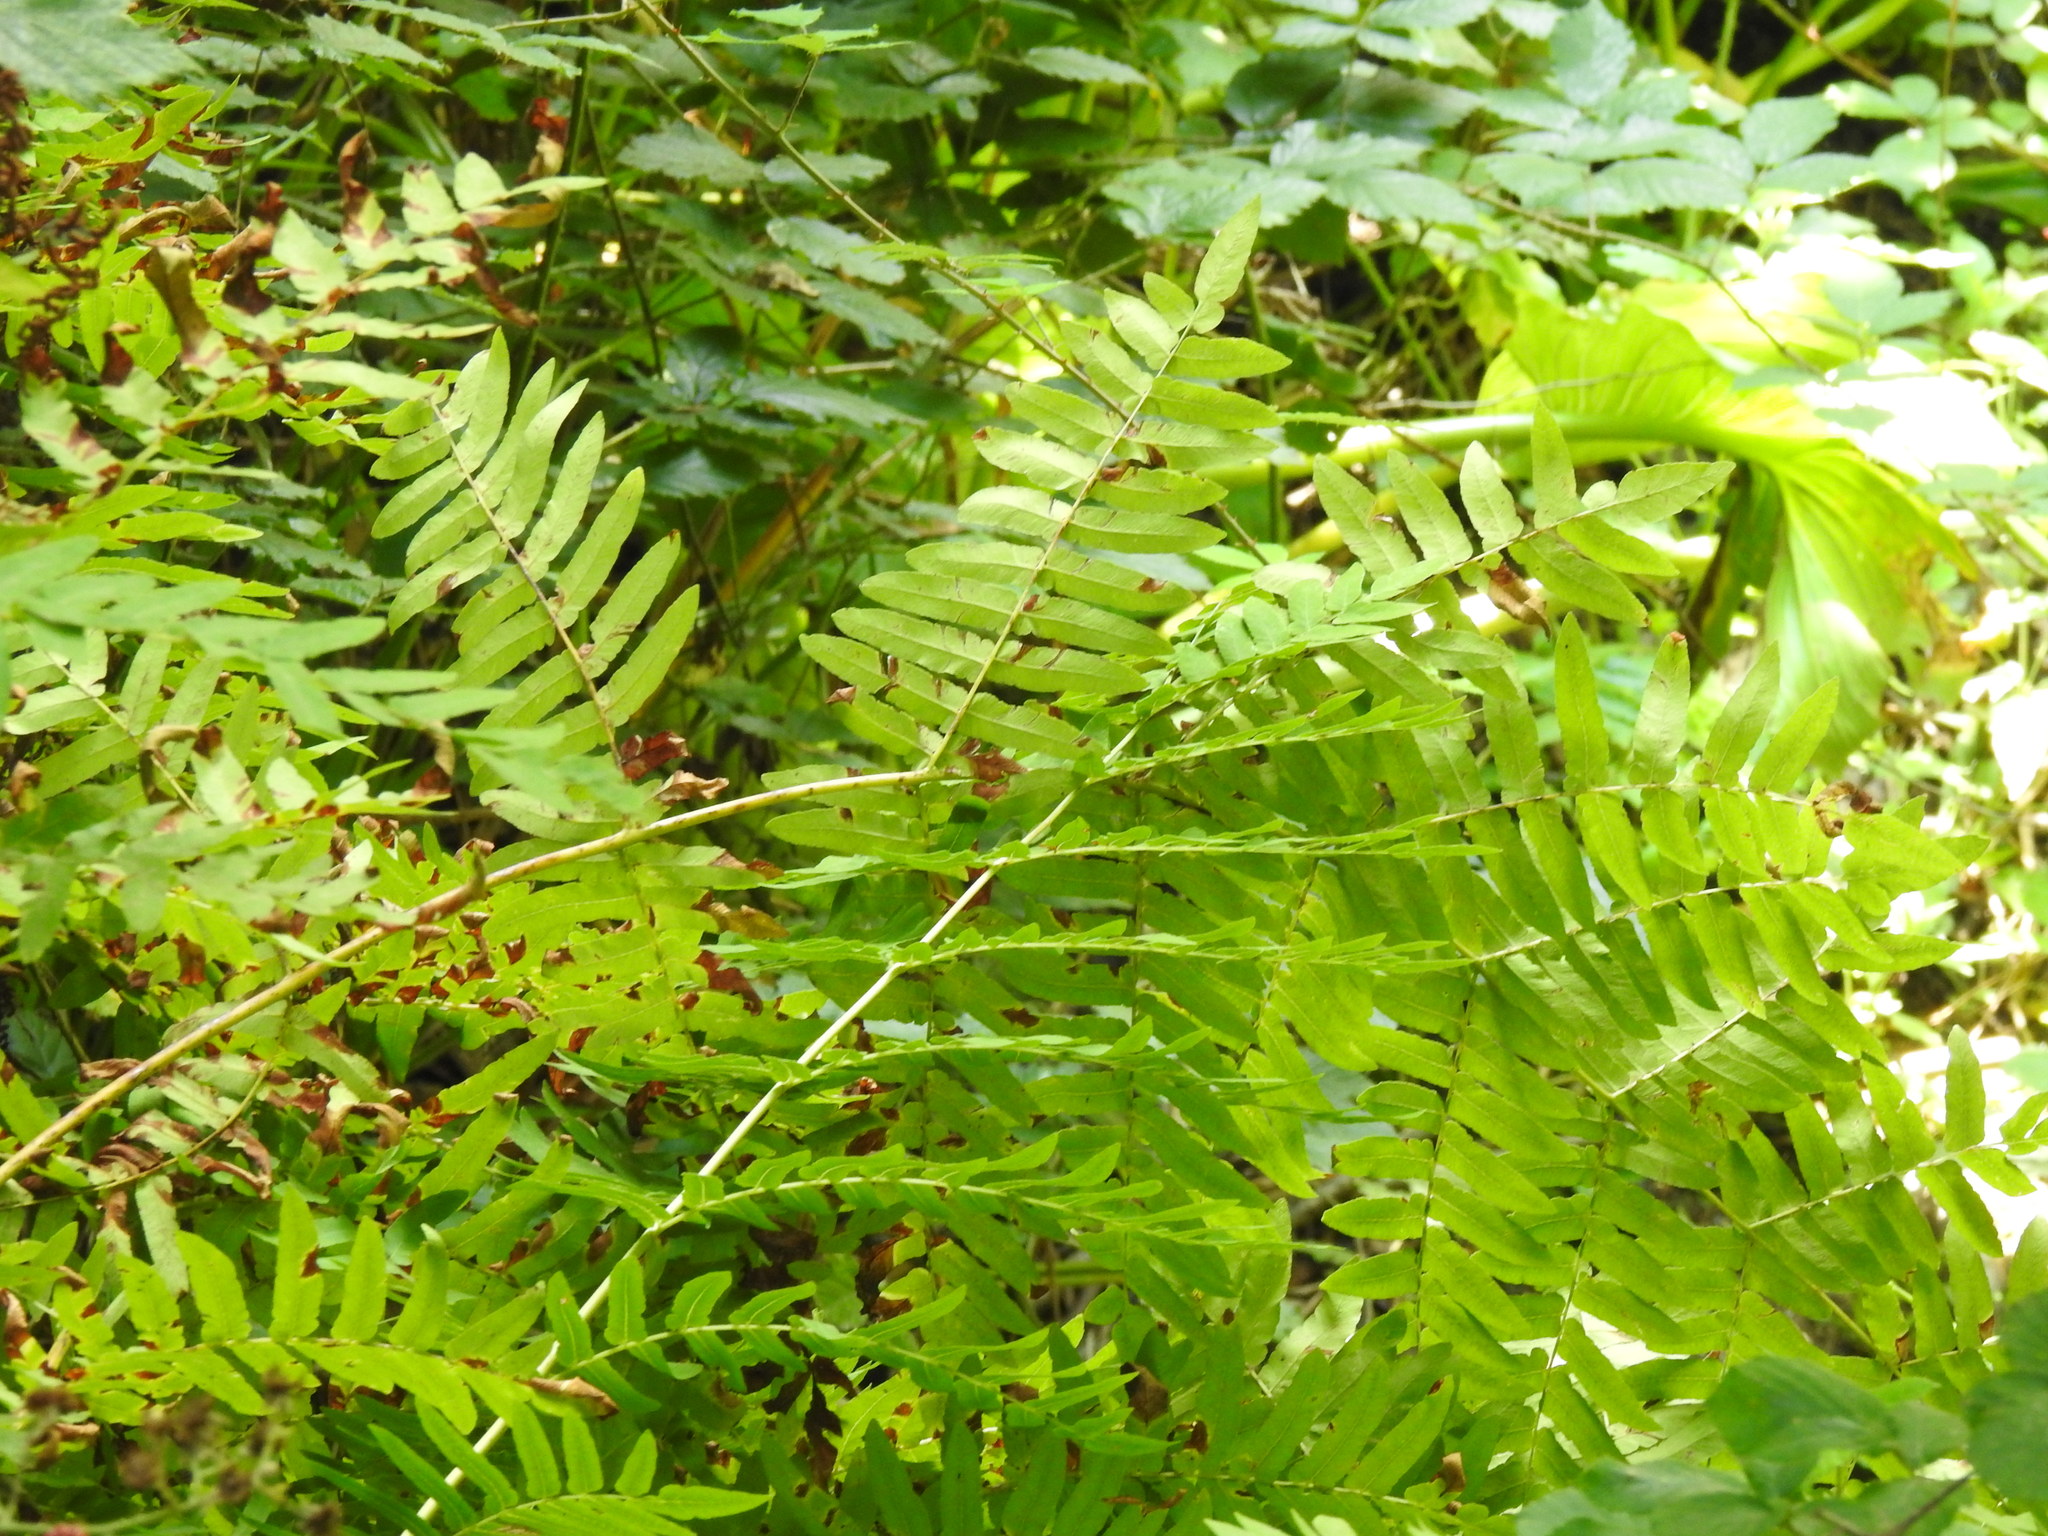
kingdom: Plantae
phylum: Tracheophyta
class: Polypodiopsida
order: Osmundales
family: Osmundaceae
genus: Osmunda
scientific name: Osmunda regalis
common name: Royal fern
